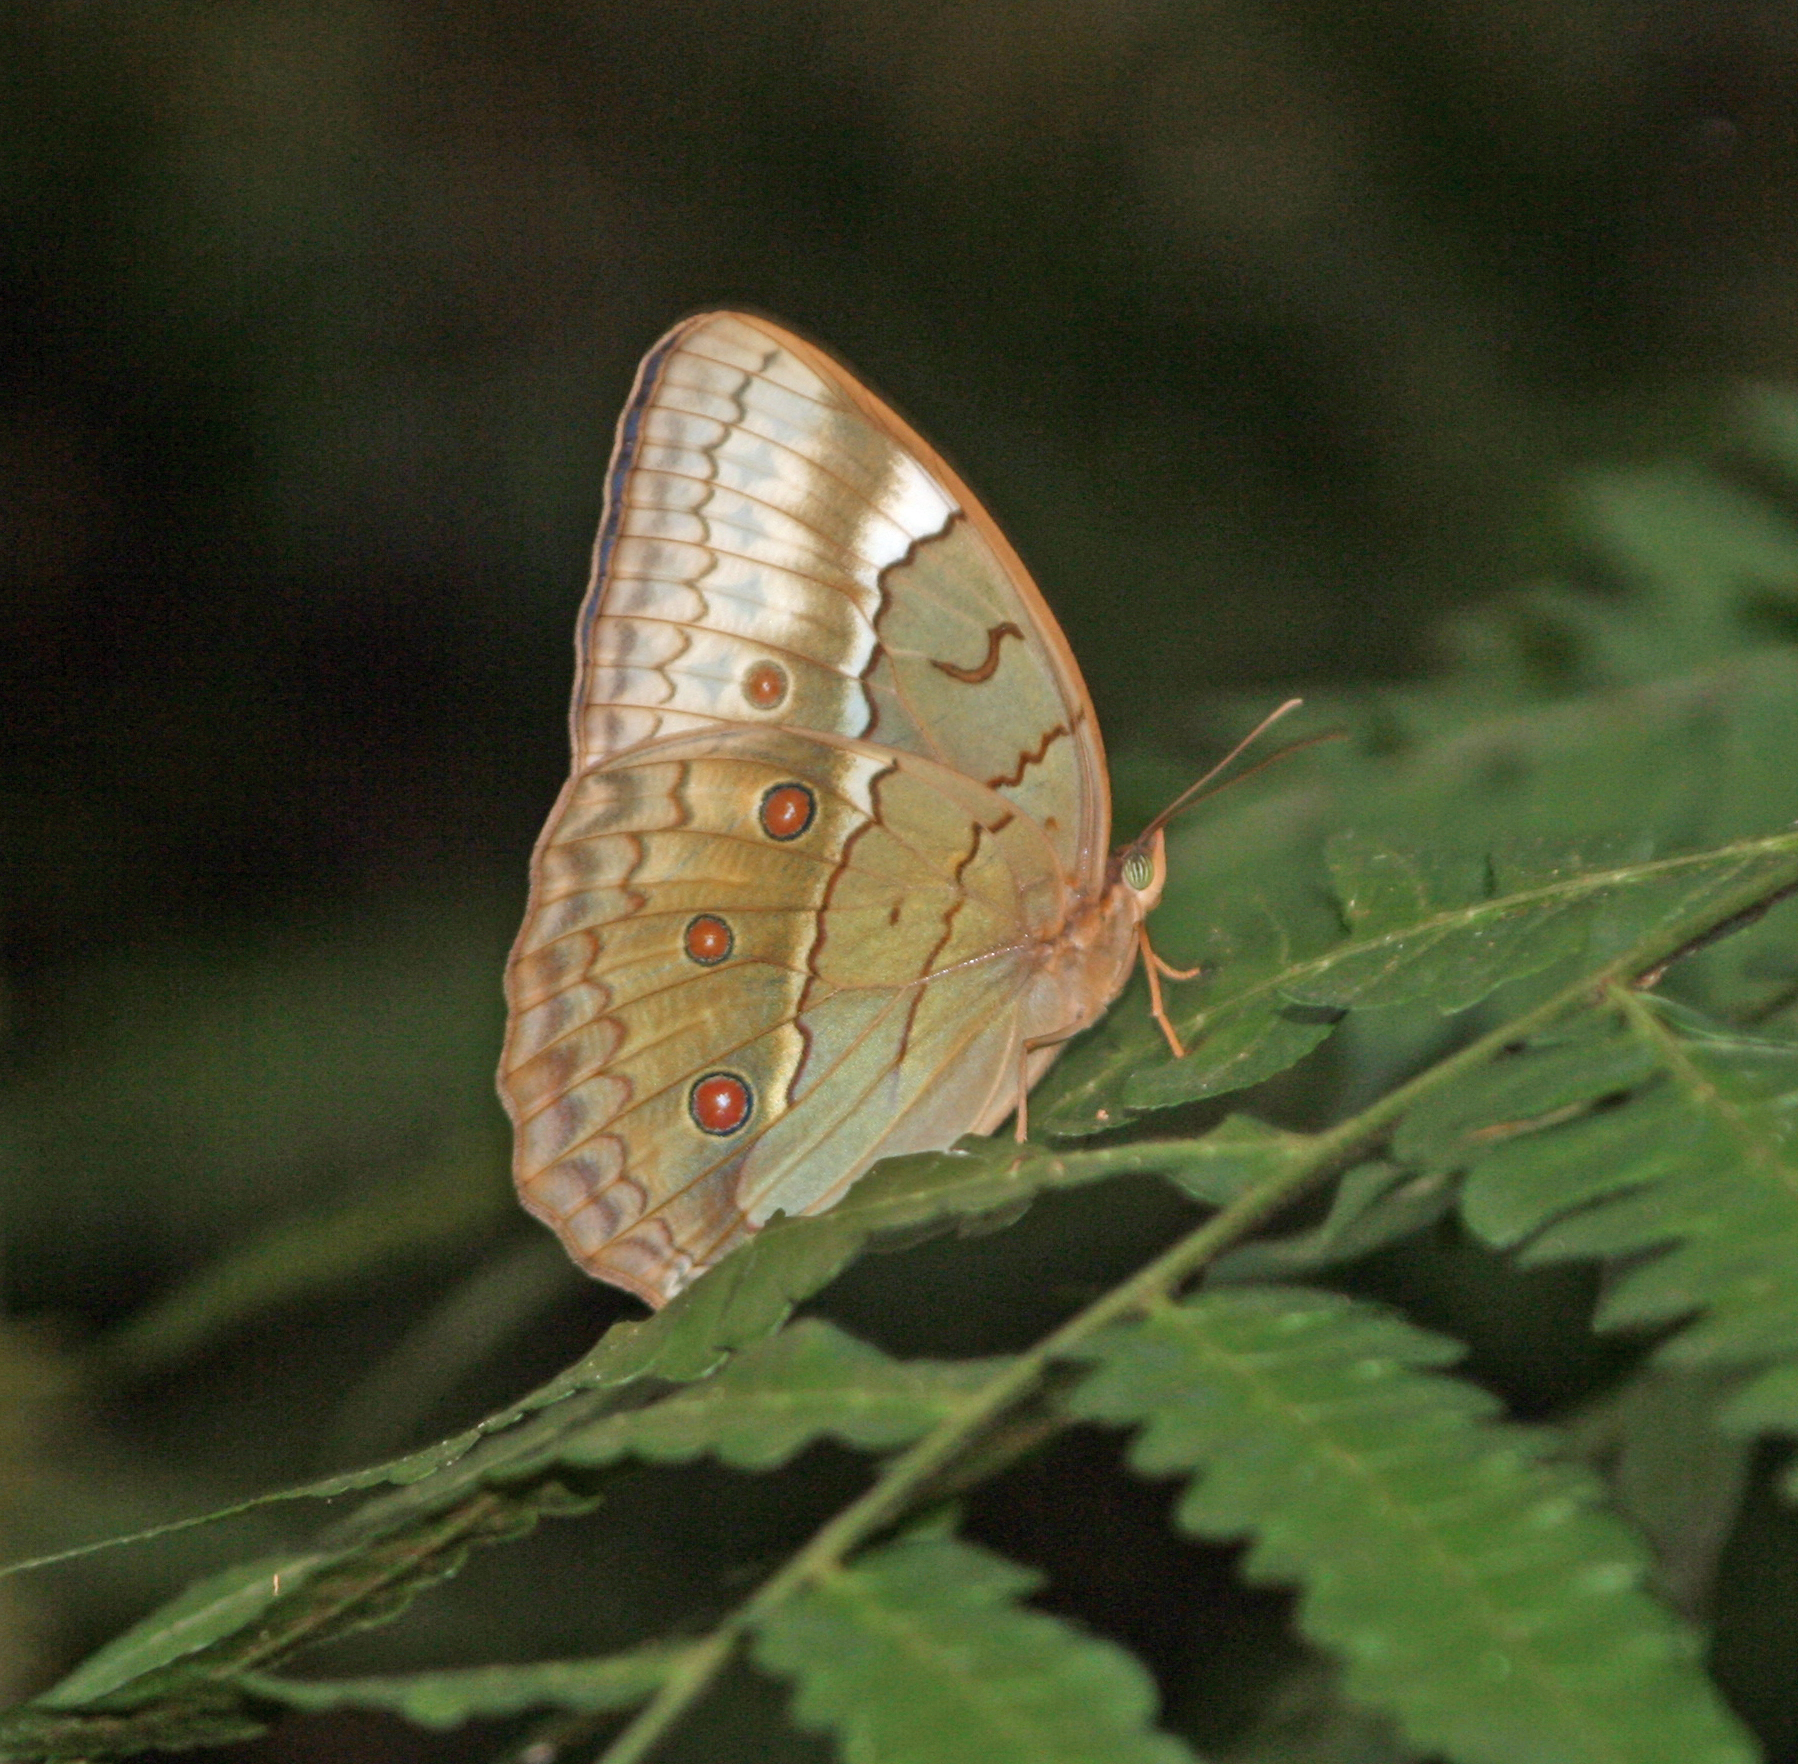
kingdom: Animalia
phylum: Arthropoda
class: Insecta
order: Lepidoptera
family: Nymphalidae
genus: Stichophthalma
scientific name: Stichophthalma cambodia
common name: Cambodian junglequeen
